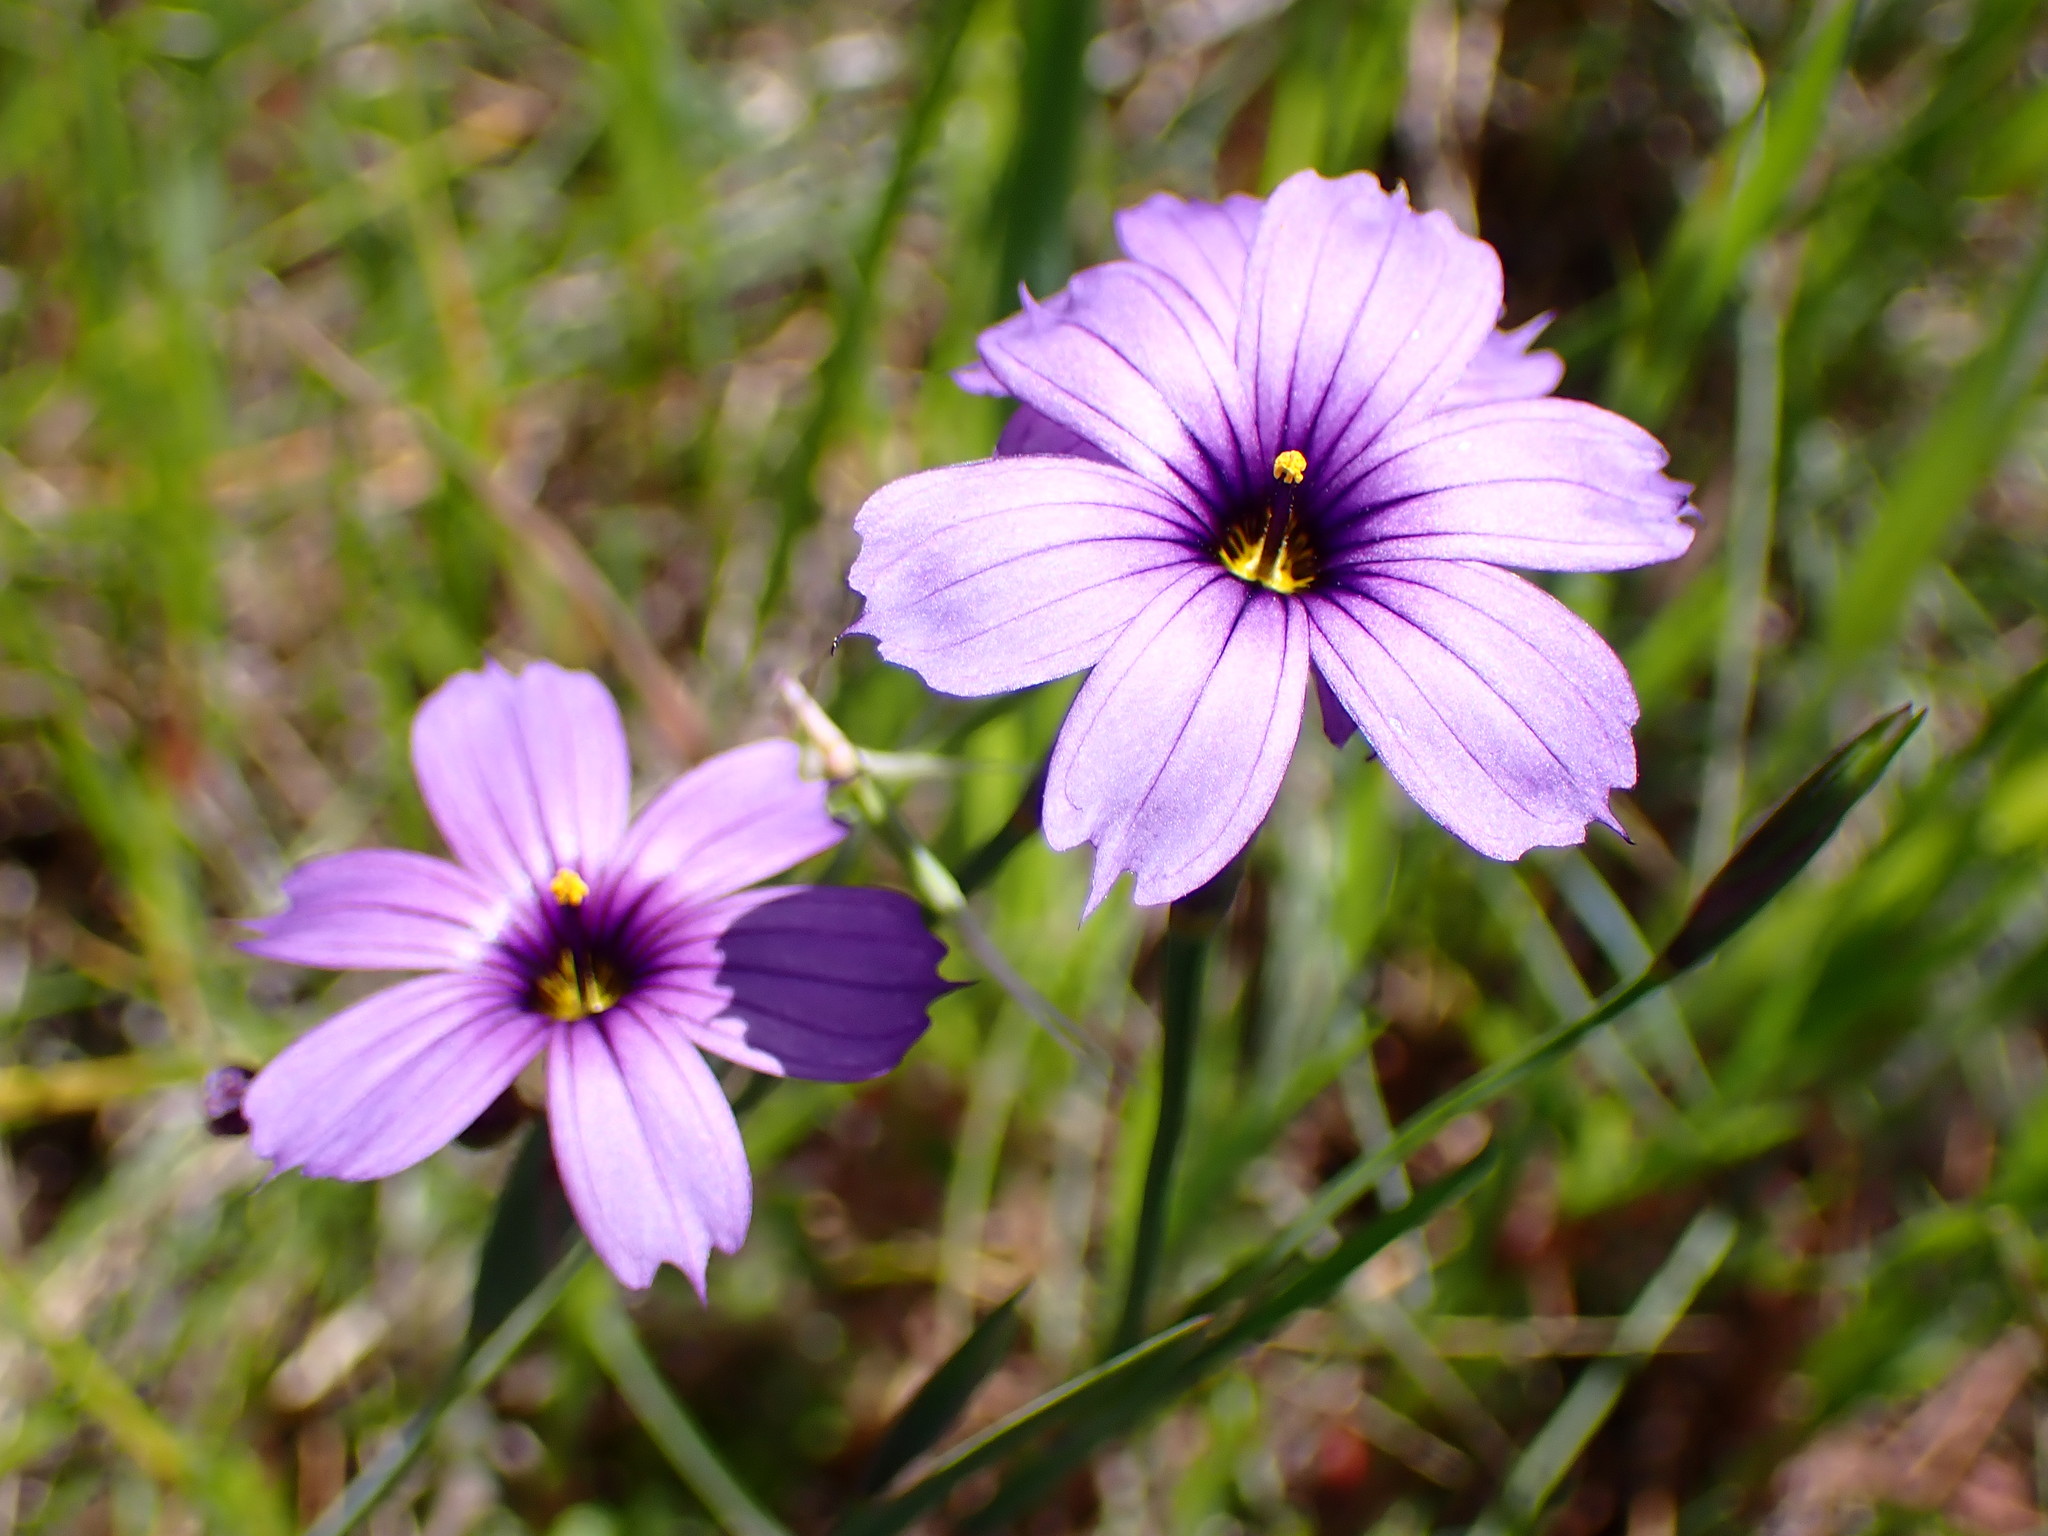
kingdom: Plantae
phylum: Tracheophyta
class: Liliopsida
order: Asparagales
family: Iridaceae
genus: Sisyrinchium
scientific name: Sisyrinchium bellum
